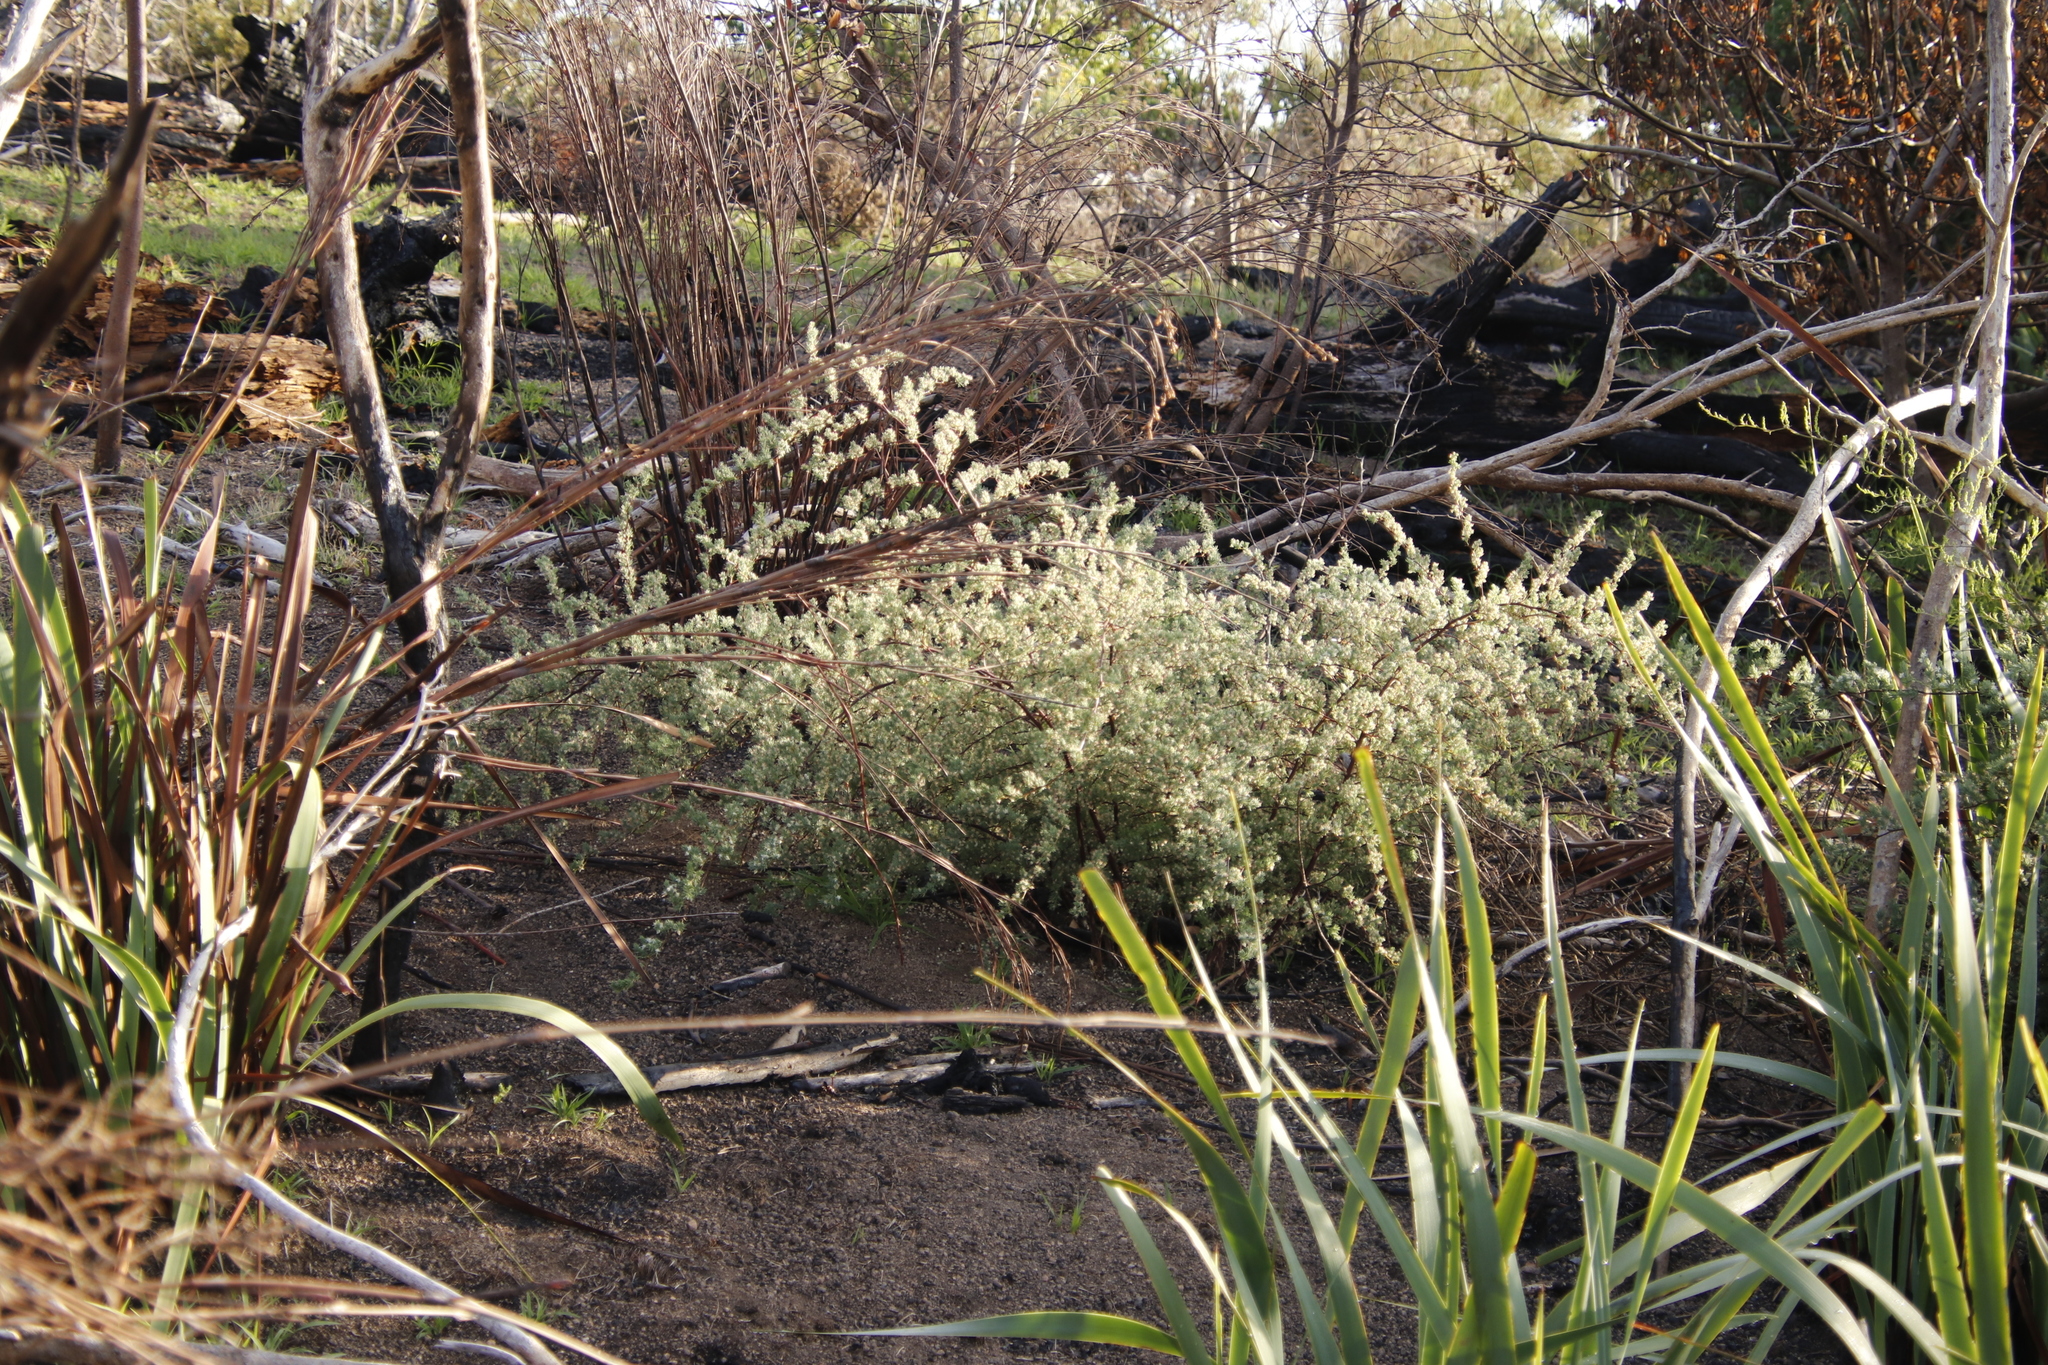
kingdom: Plantae
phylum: Tracheophyta
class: Liliopsida
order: Asparagales
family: Asparagaceae
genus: Asparagus
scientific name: Asparagus rubicundus
